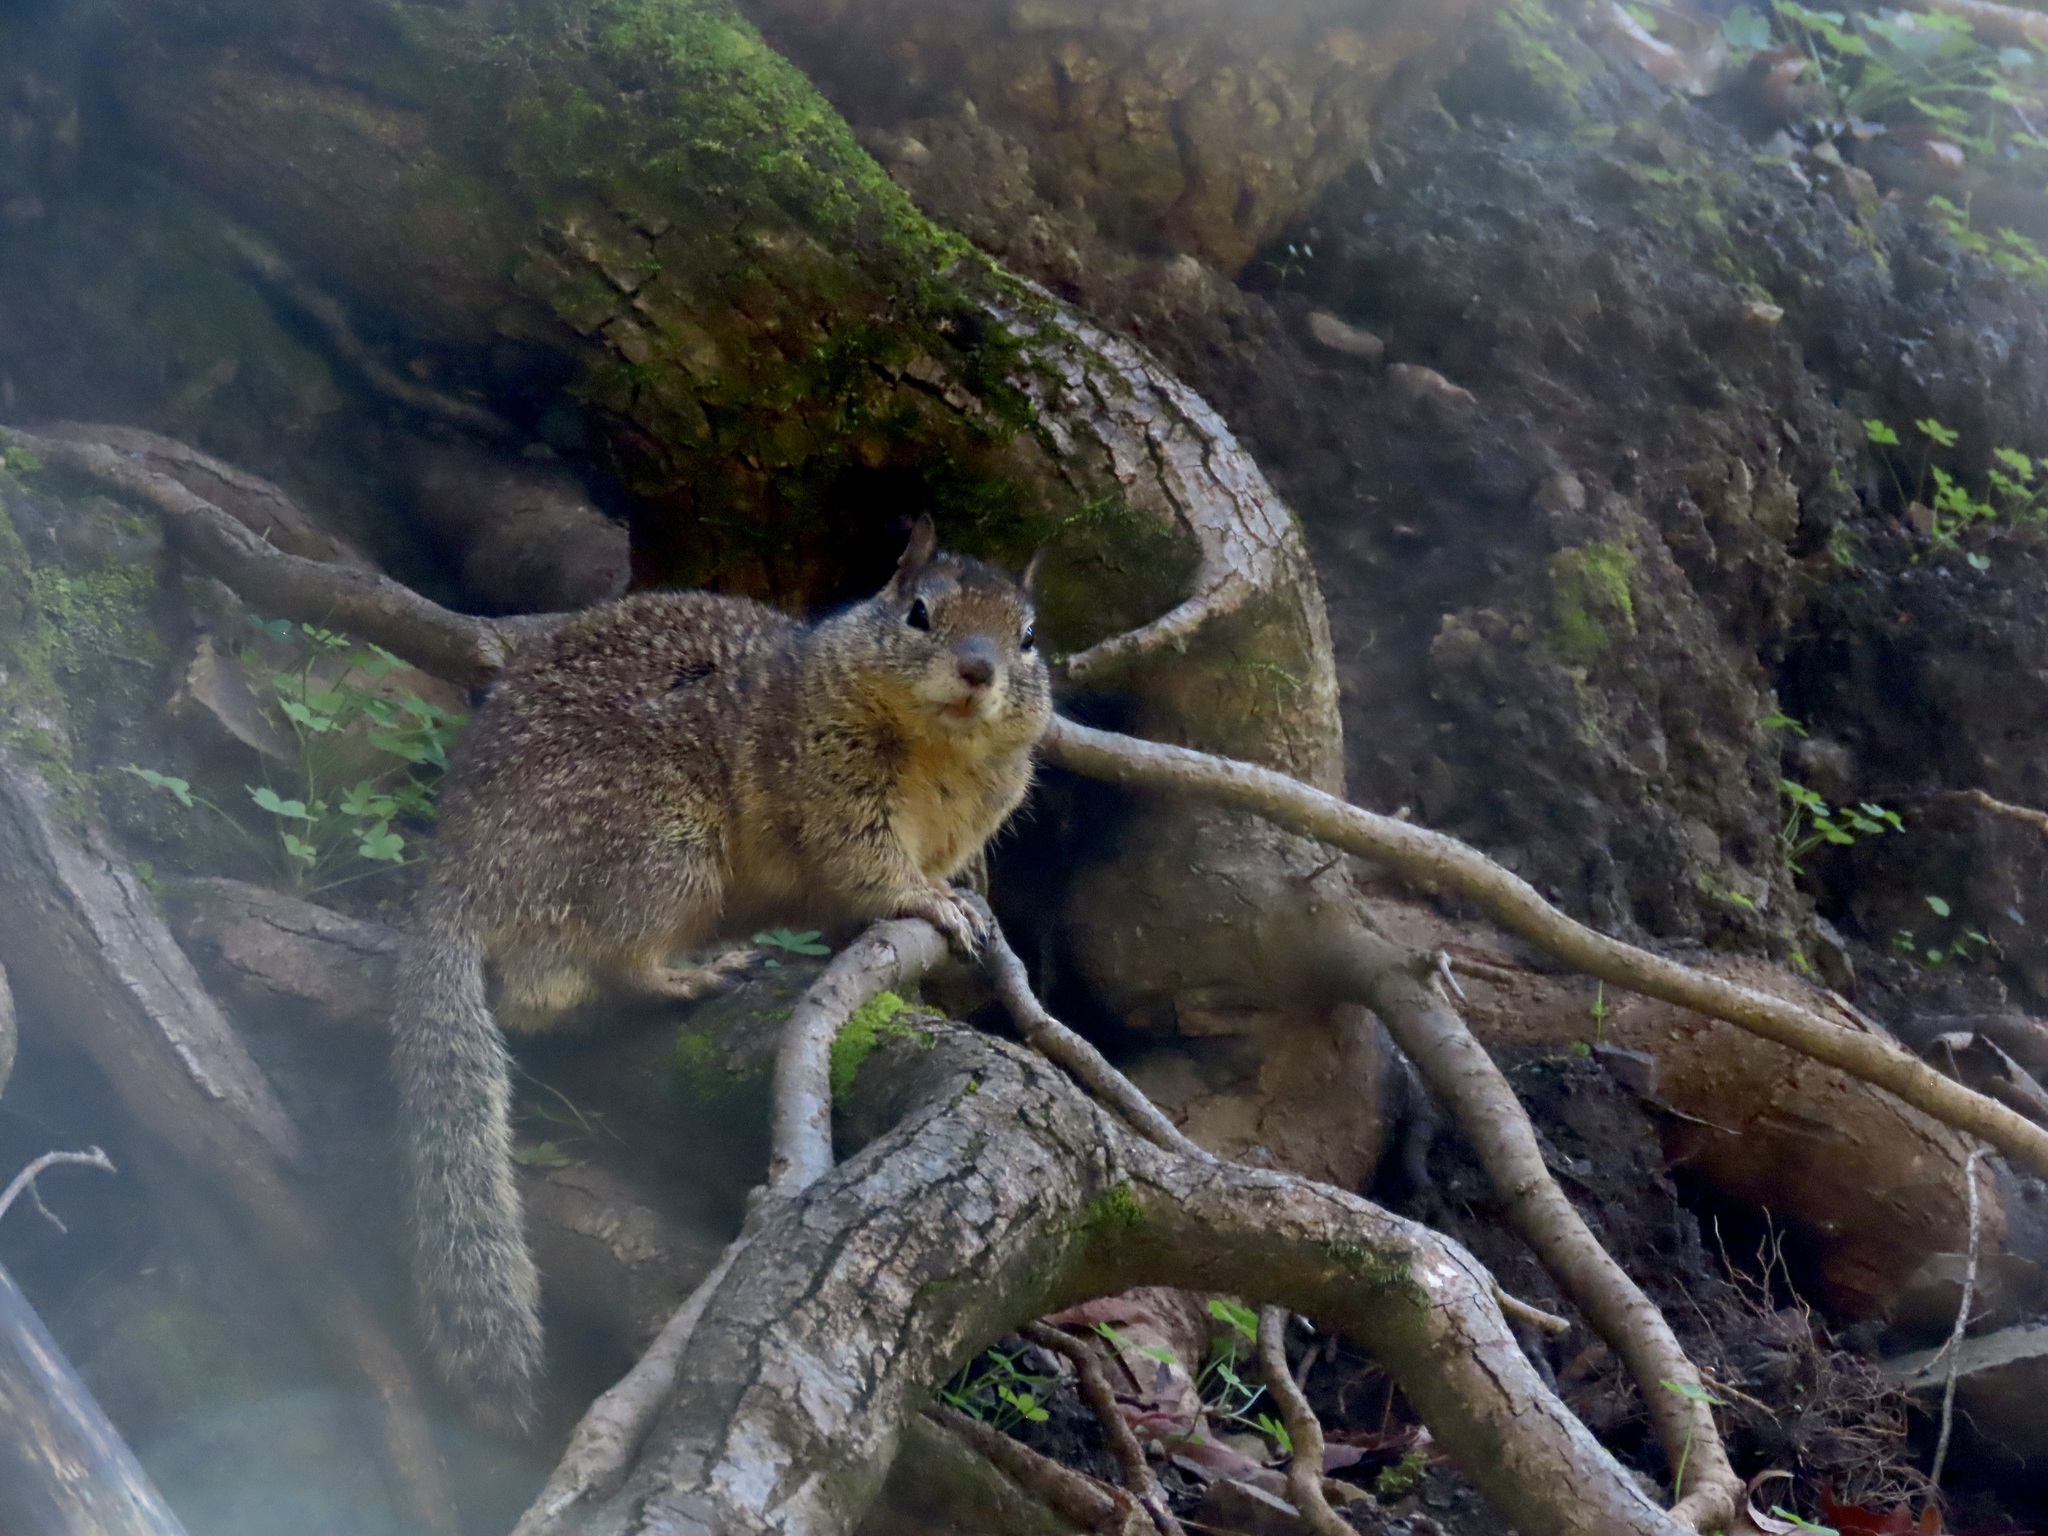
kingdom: Animalia
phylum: Chordata
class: Mammalia
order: Rodentia
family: Sciuridae
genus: Otospermophilus
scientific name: Otospermophilus beecheyi
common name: California ground squirrel
